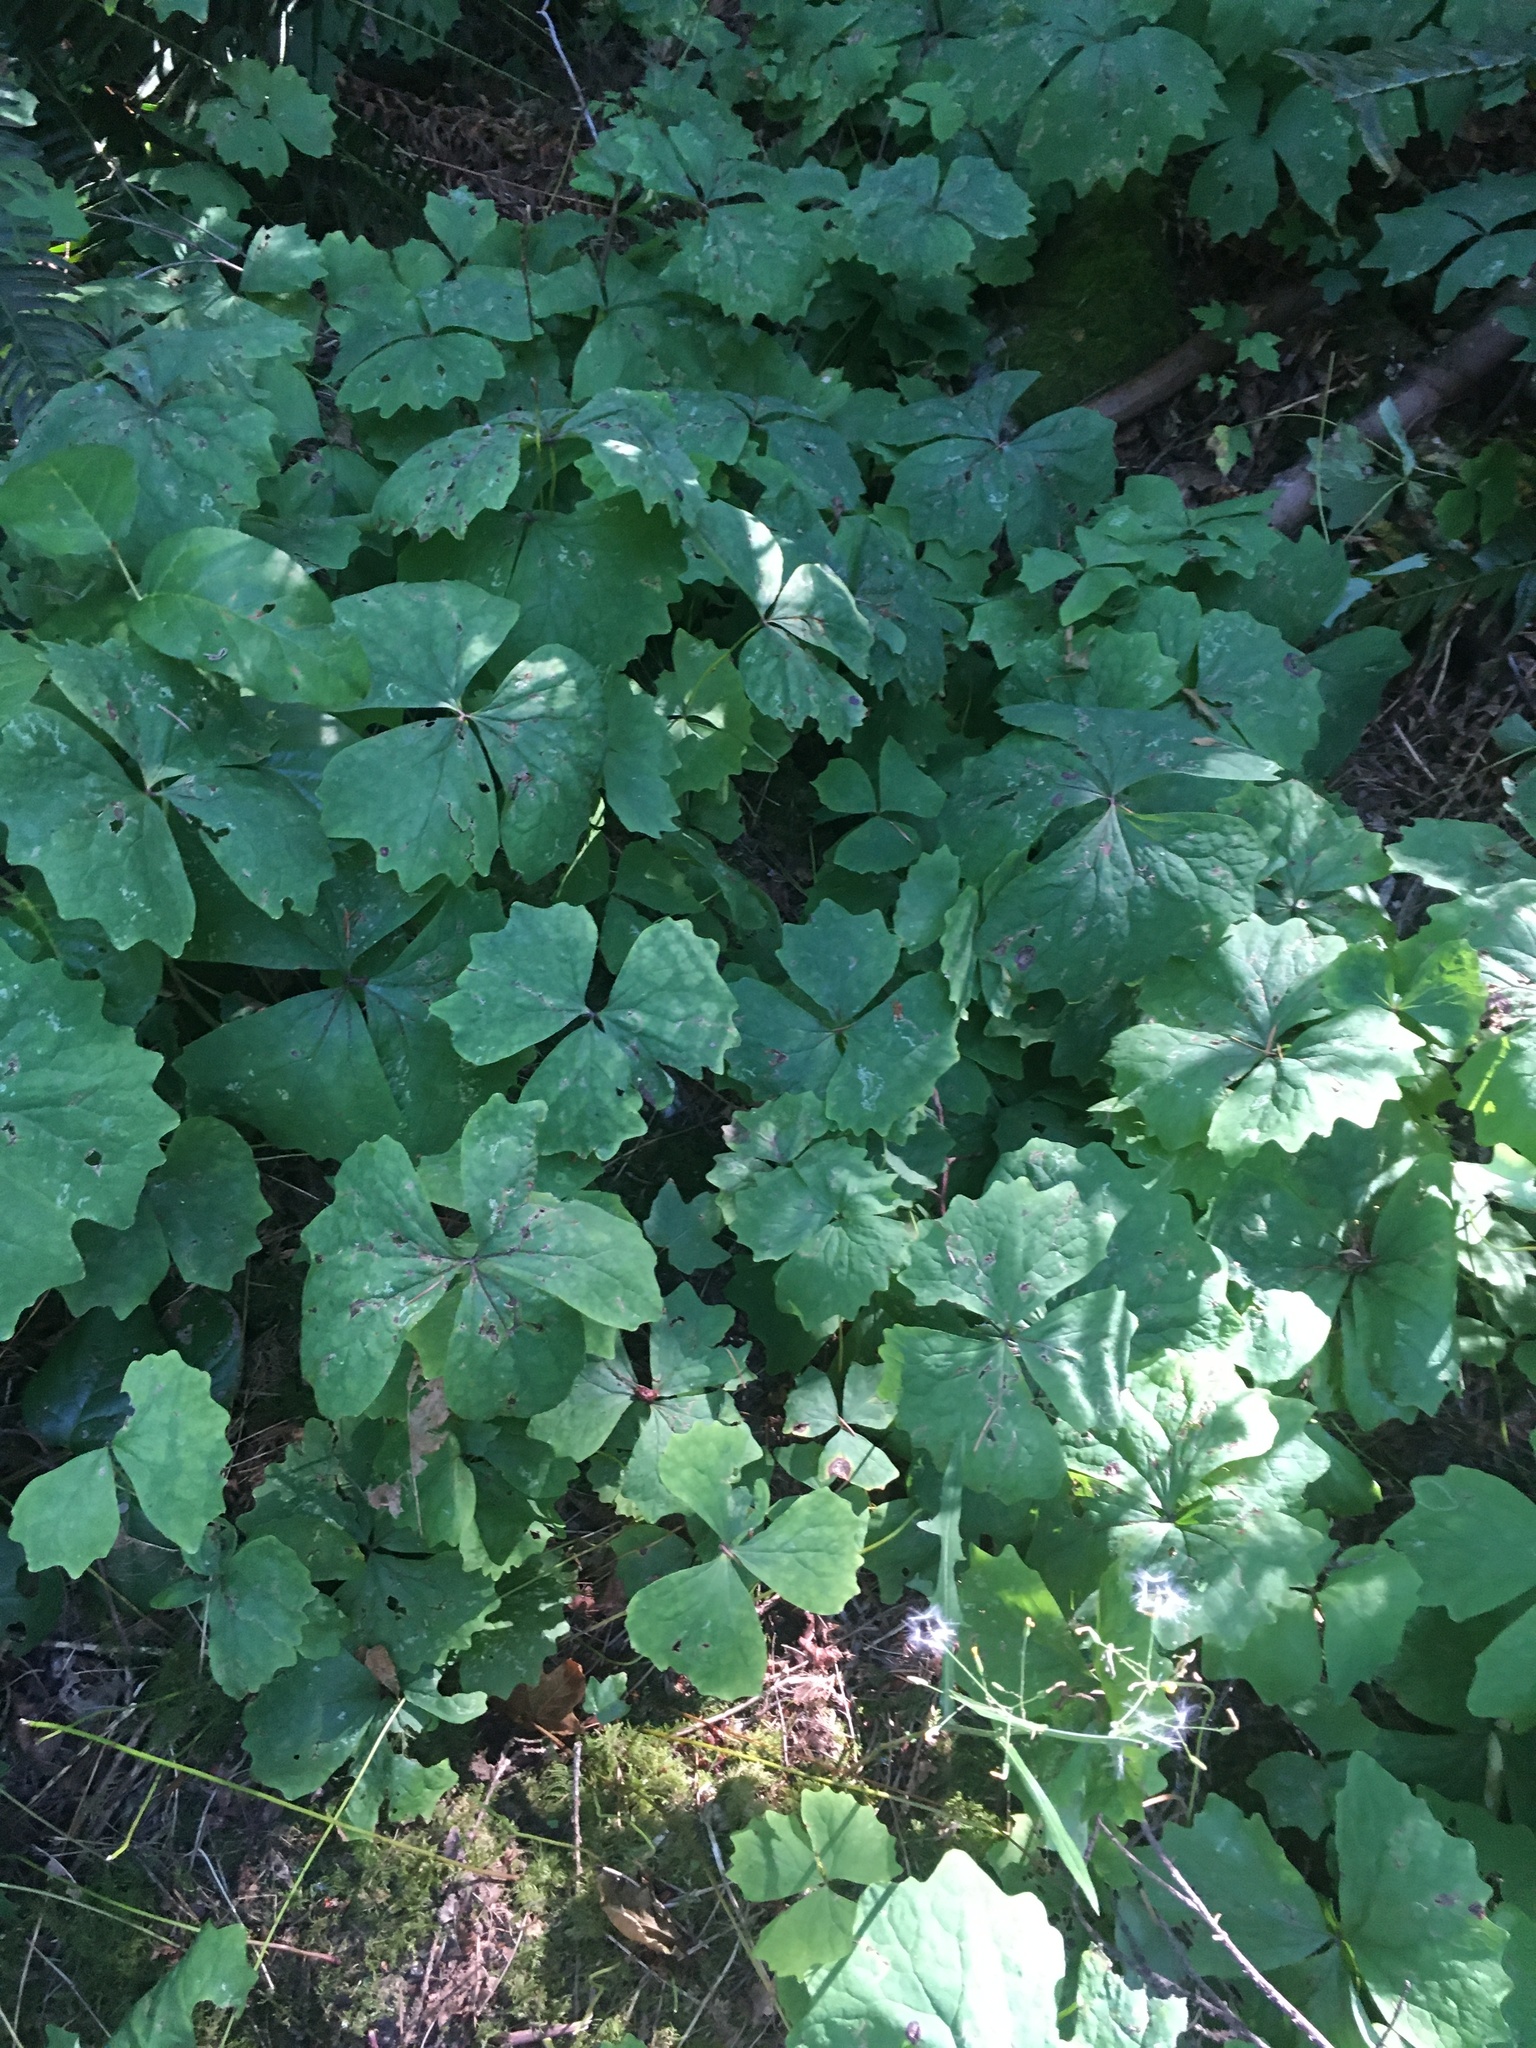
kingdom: Plantae
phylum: Tracheophyta
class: Magnoliopsida
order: Ranunculales
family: Berberidaceae
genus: Achlys
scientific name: Achlys triphylla
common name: Vanilla-leaf
